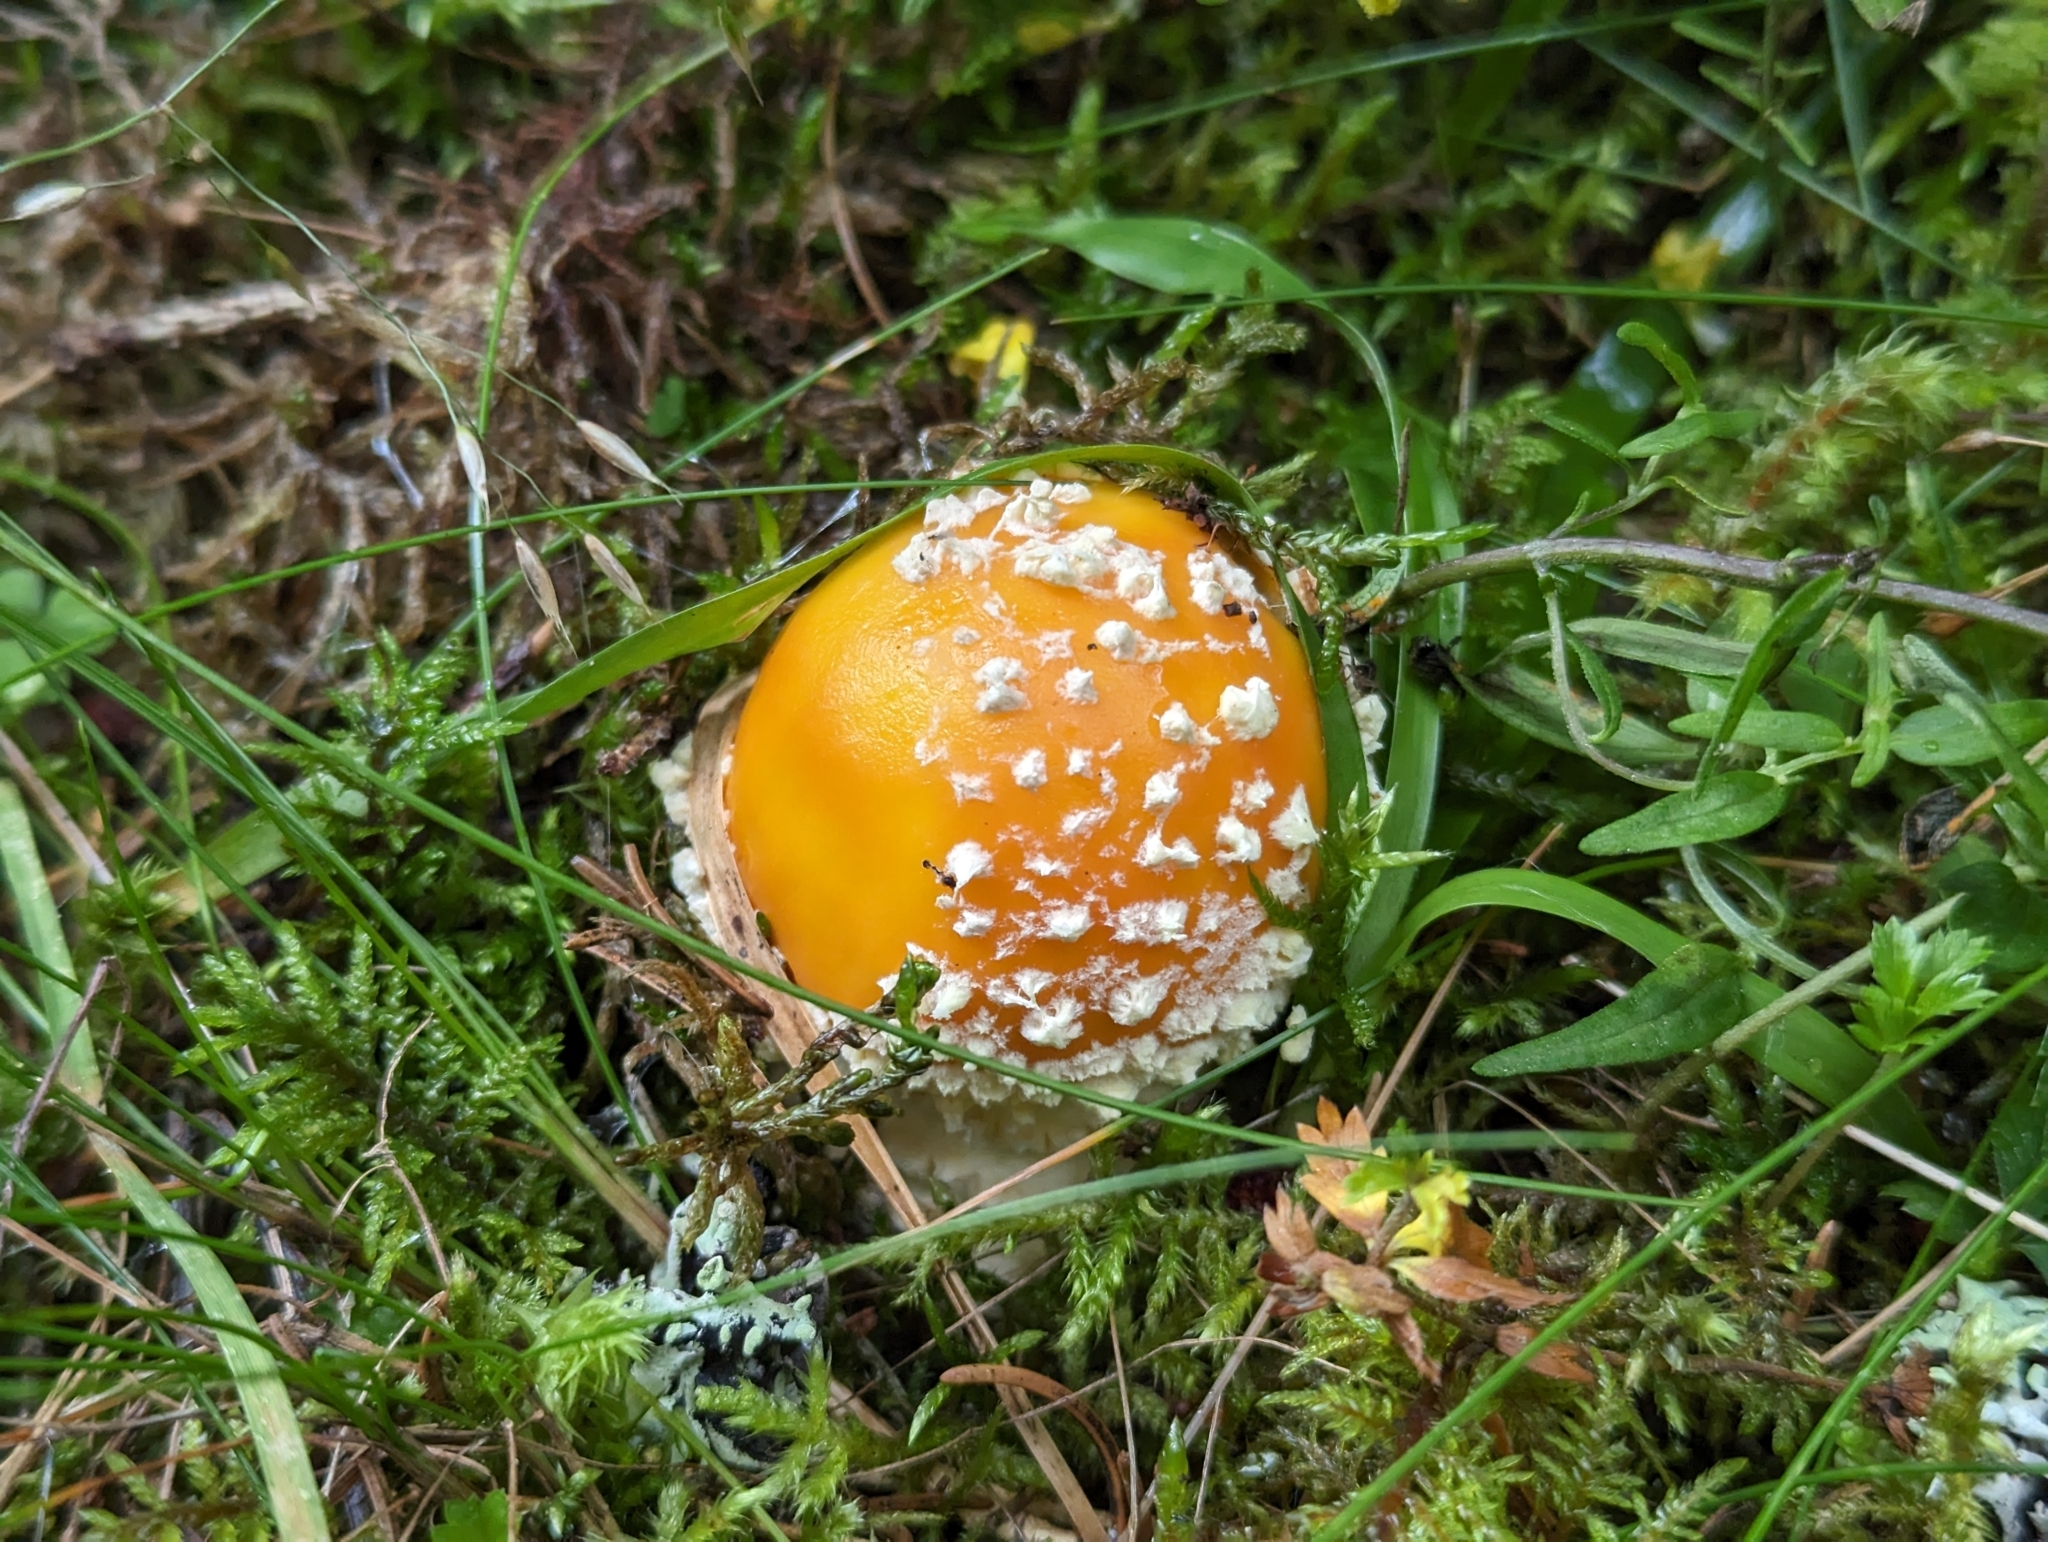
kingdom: Fungi
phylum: Basidiomycota
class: Agaricomycetes
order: Agaricales
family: Amanitaceae
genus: Amanita
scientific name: Amanita muscaria
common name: Fly agaric
